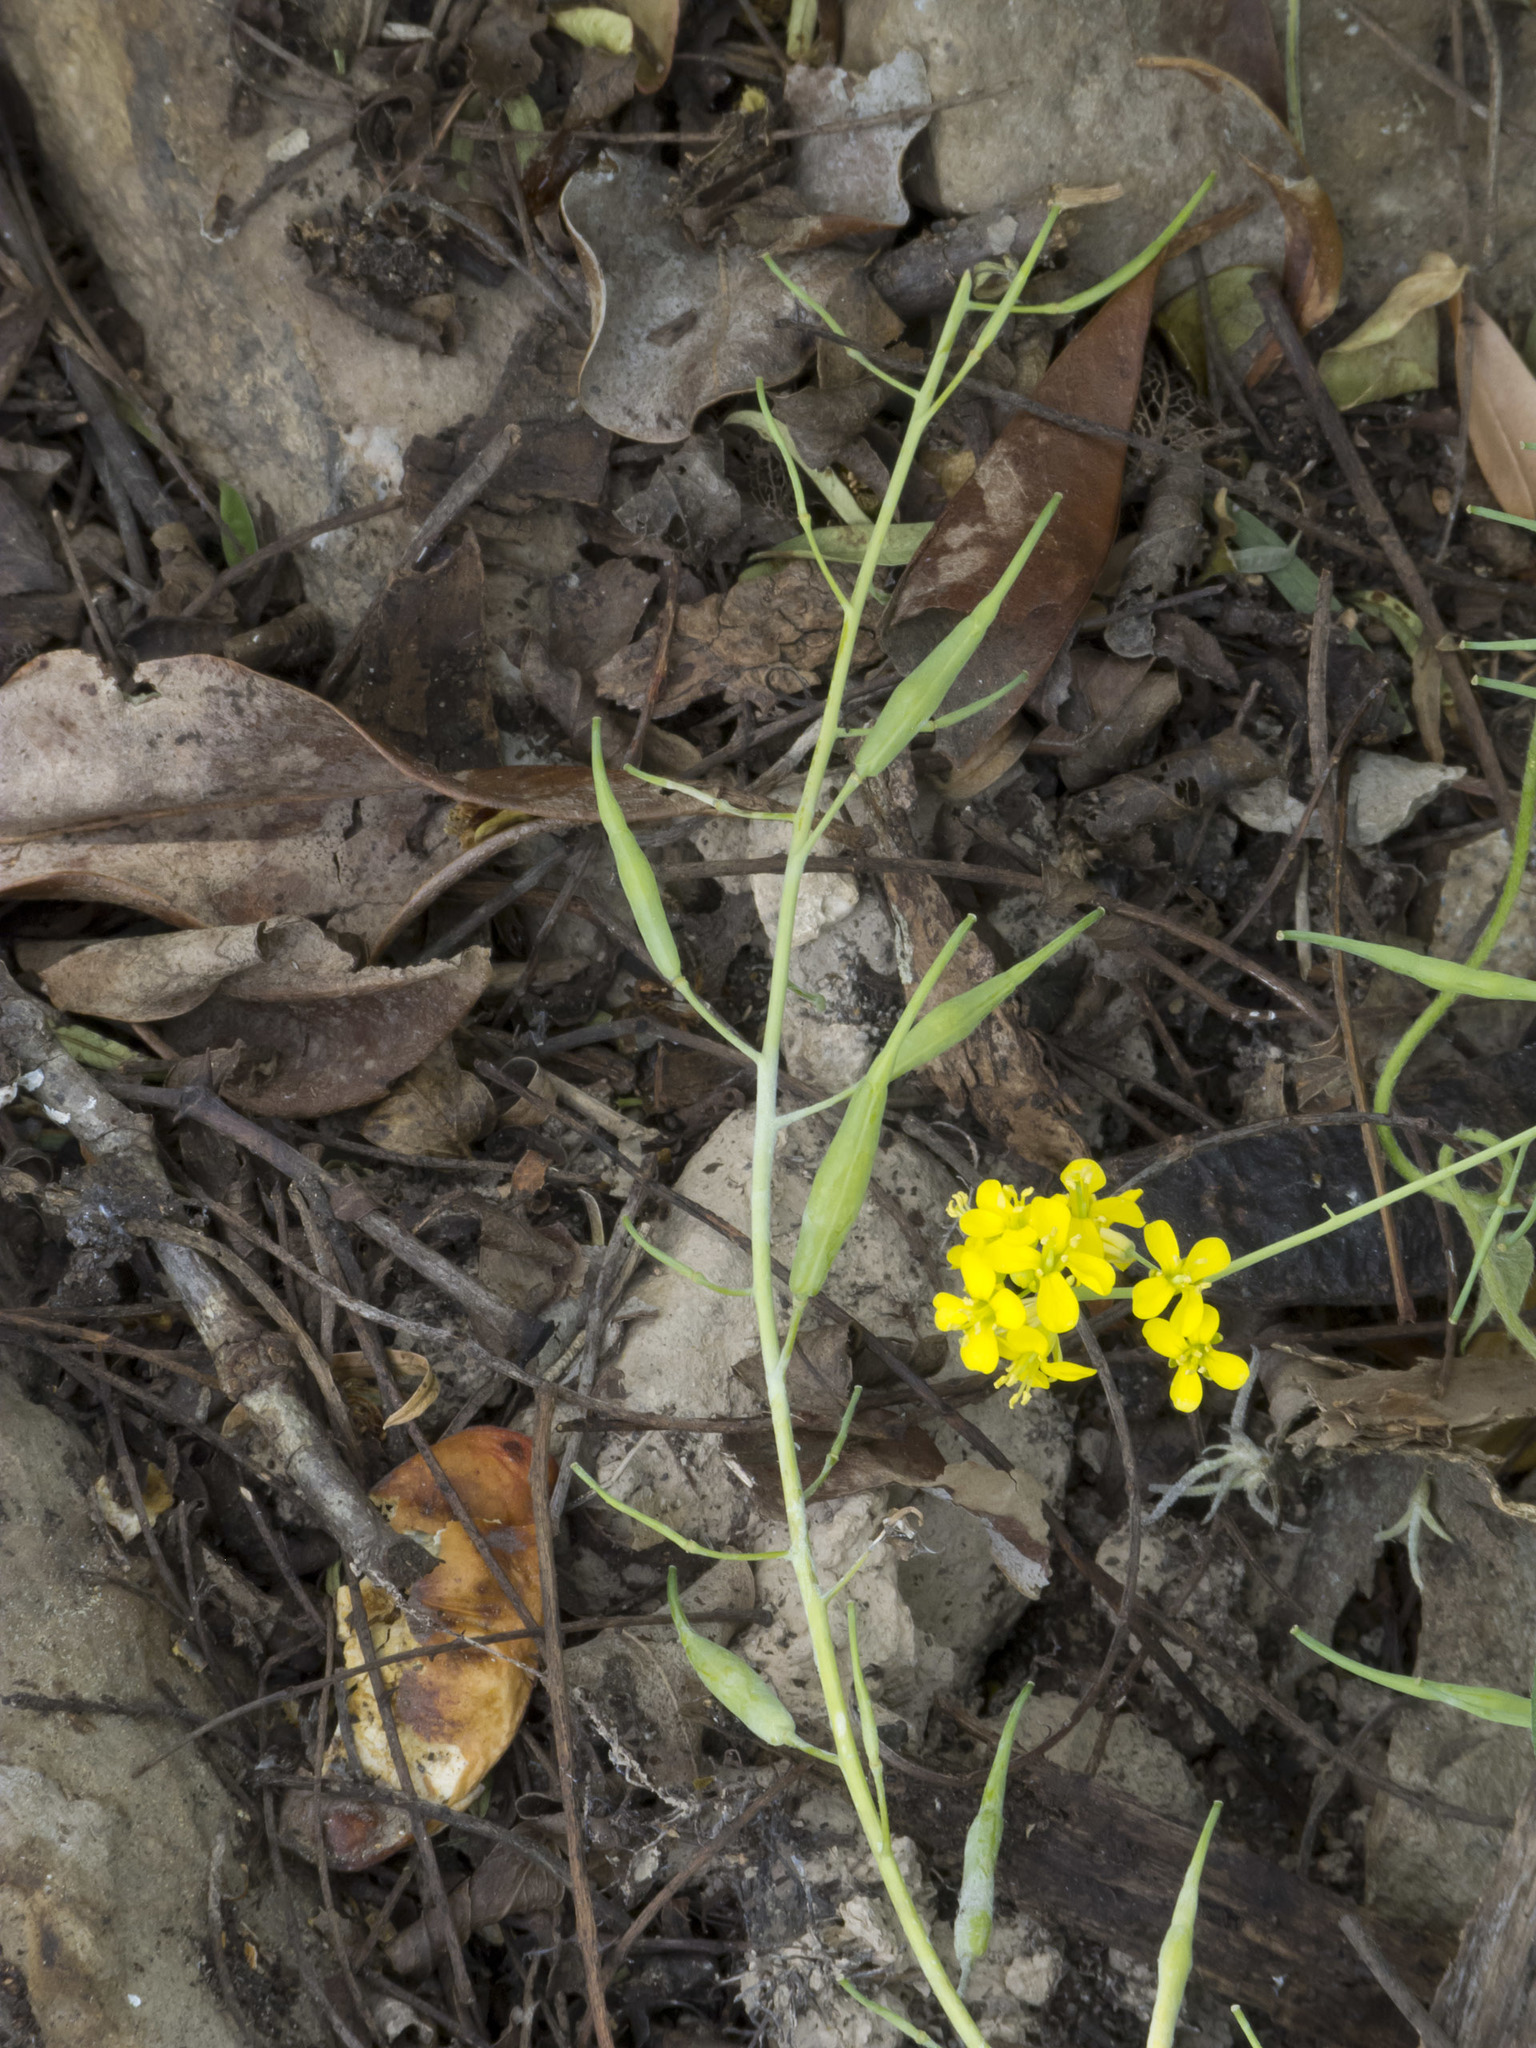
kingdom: Plantae
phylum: Tracheophyta
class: Magnoliopsida
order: Brassicales
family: Brassicaceae
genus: Brassica
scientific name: Brassica rapa
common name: Field mustard
